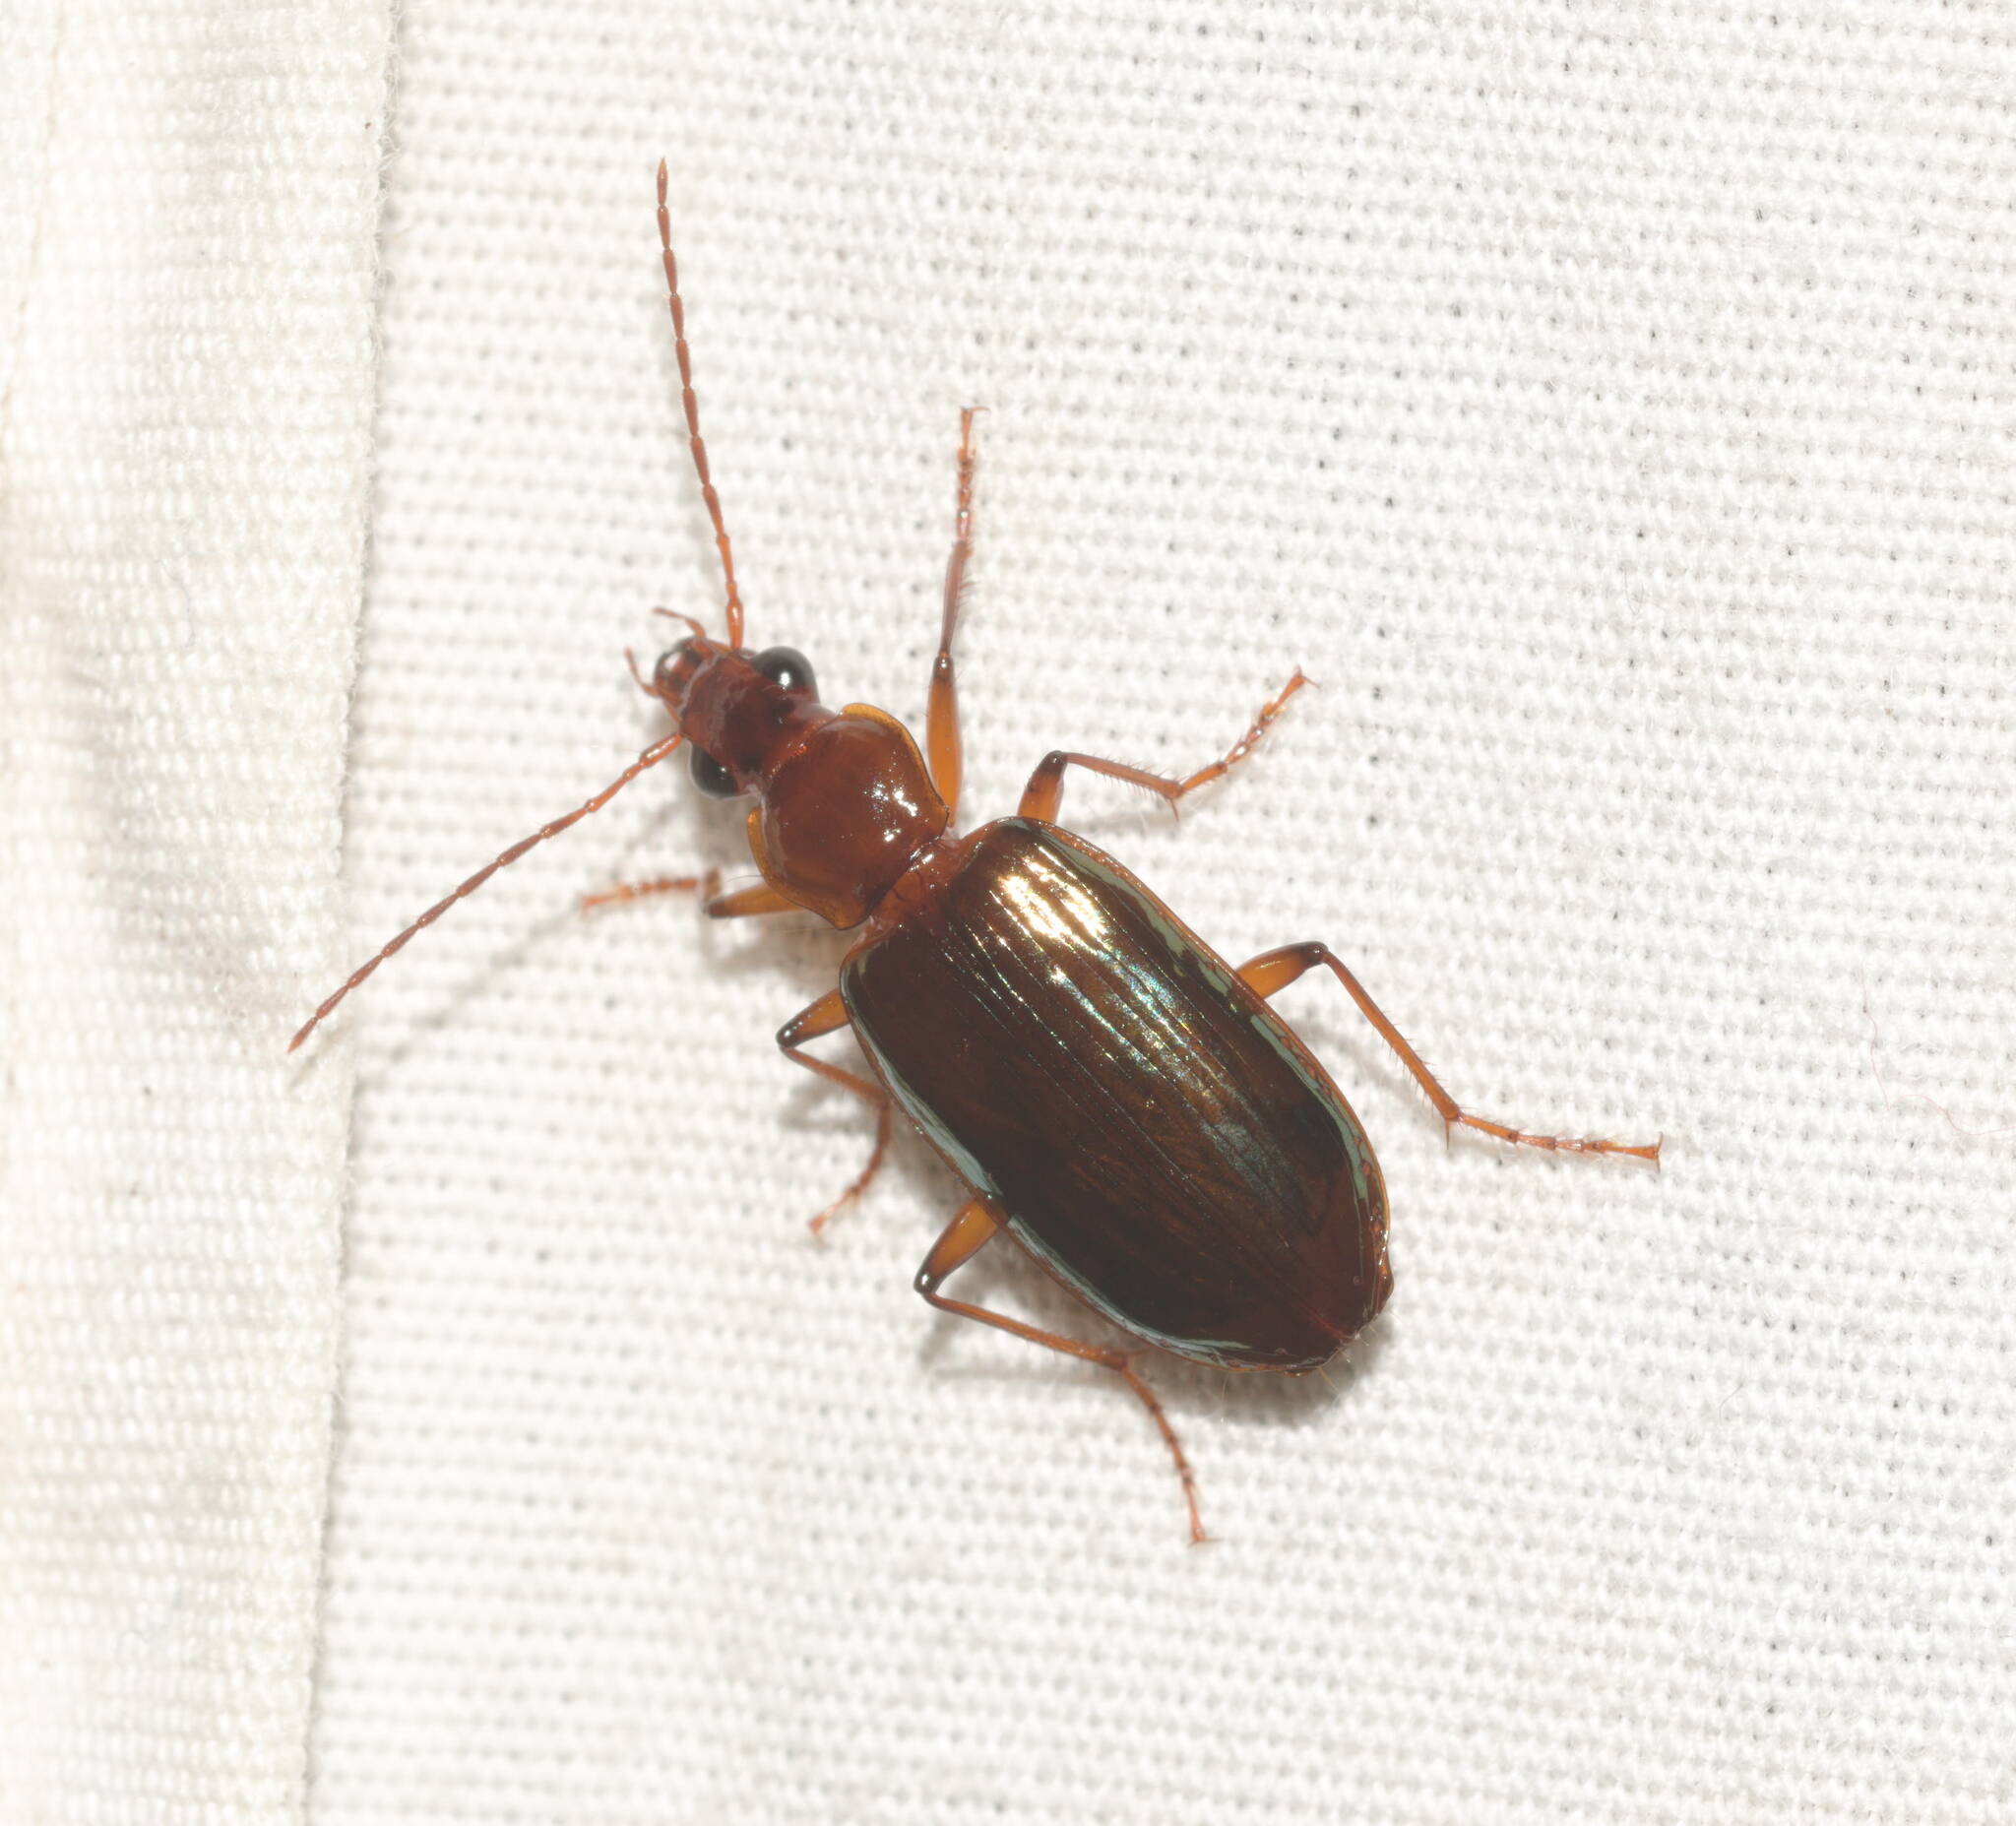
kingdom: Animalia
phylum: Arthropoda
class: Insecta
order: Coleoptera
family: Carabidae
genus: Metacolpodes
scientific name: Metacolpodes buchannani
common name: Buchanan's harp ground beetle
